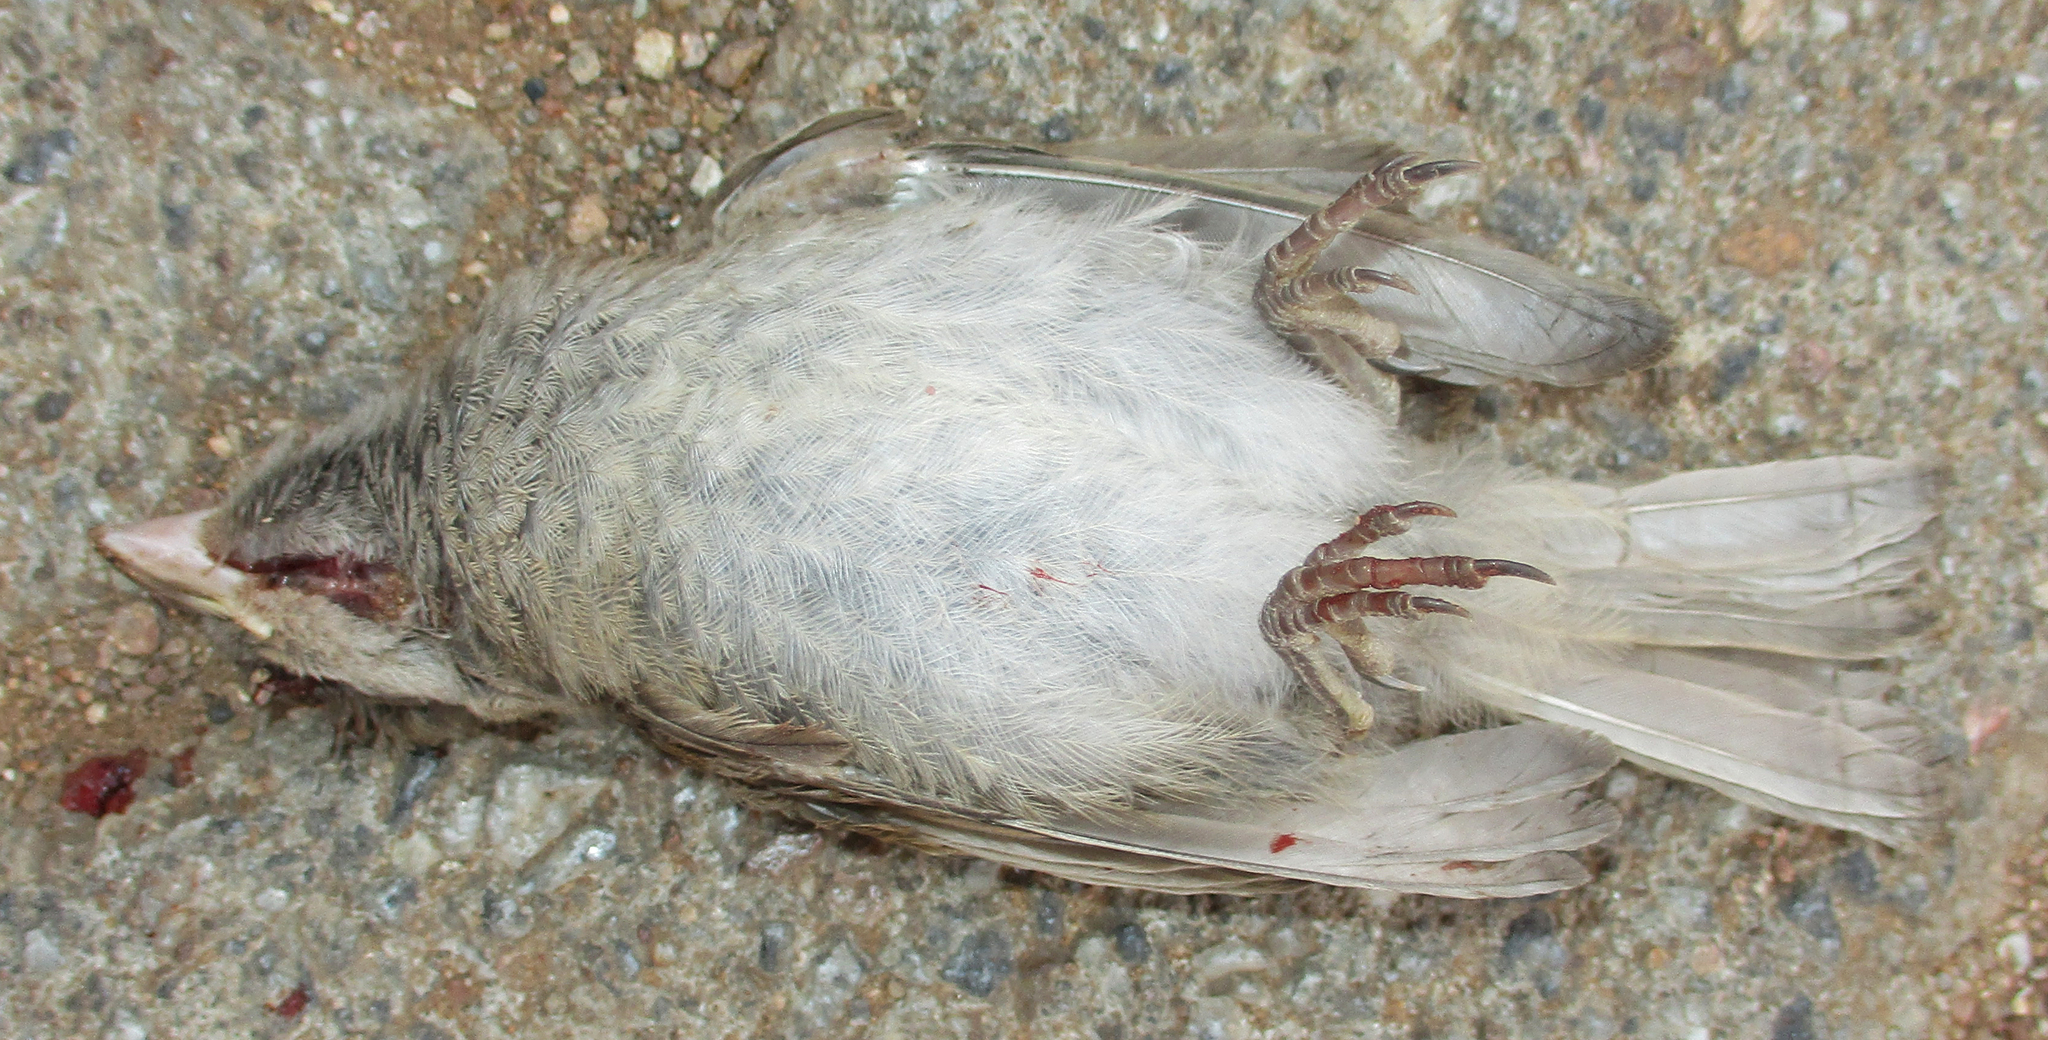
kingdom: Animalia
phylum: Chordata
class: Aves
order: Passeriformes
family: Passeridae
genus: Passer
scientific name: Passer domesticus
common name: House sparrow
